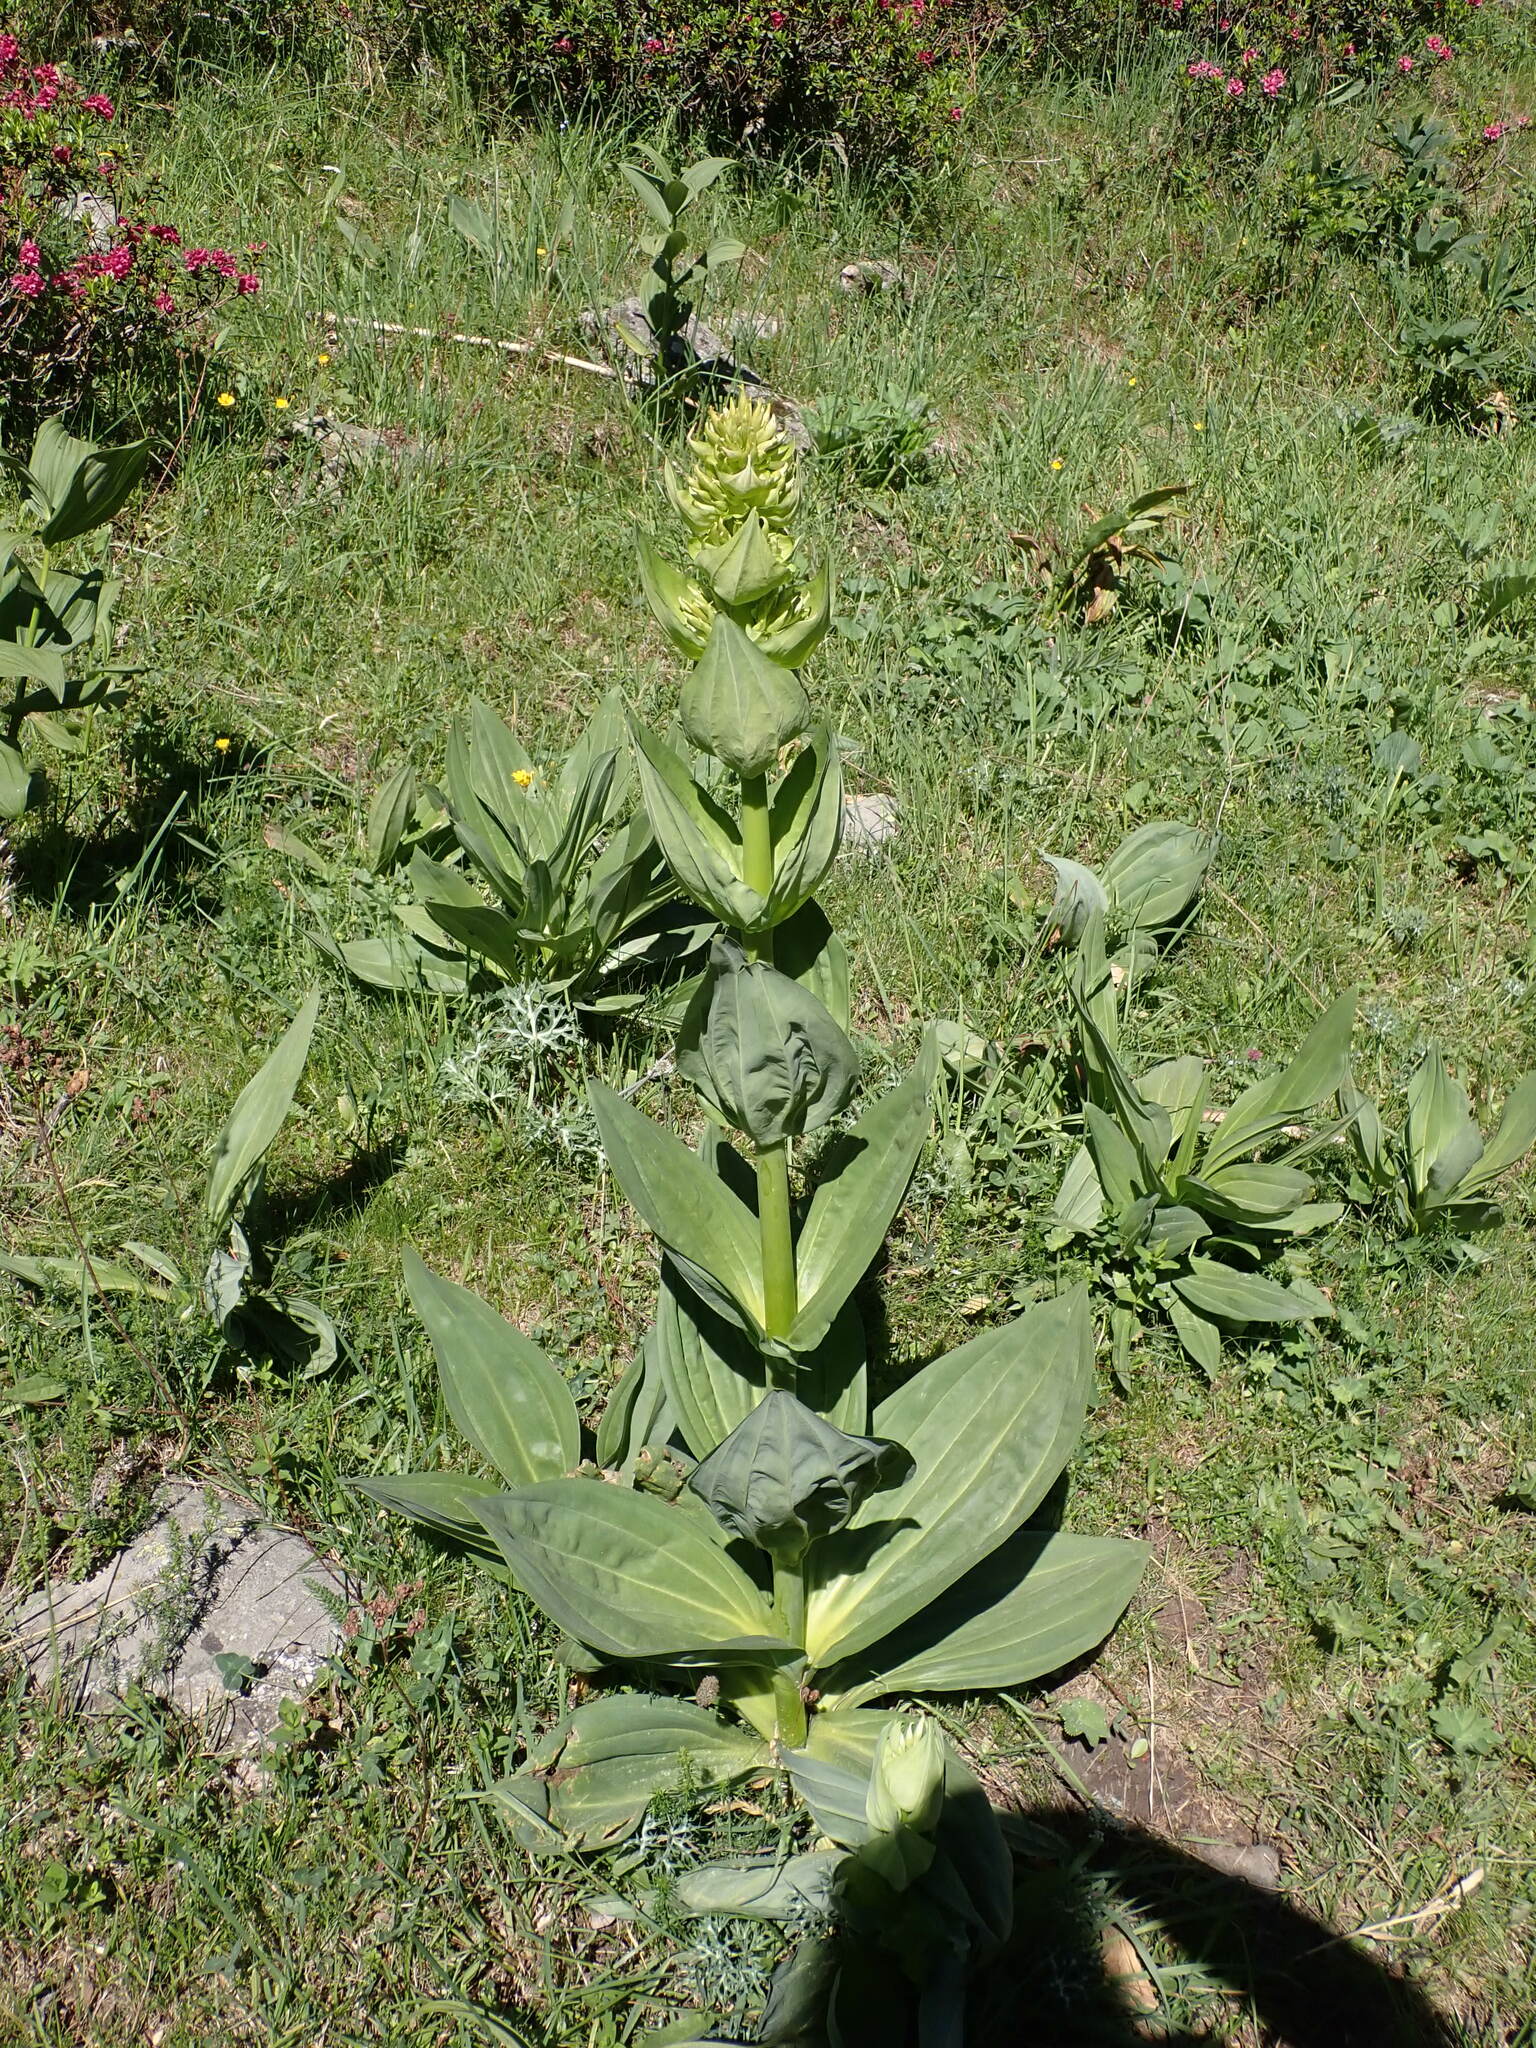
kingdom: Plantae
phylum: Tracheophyta
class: Magnoliopsida
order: Gentianales
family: Gentianaceae
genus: Gentiana
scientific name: Gentiana lutea
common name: Great yellow gentian
